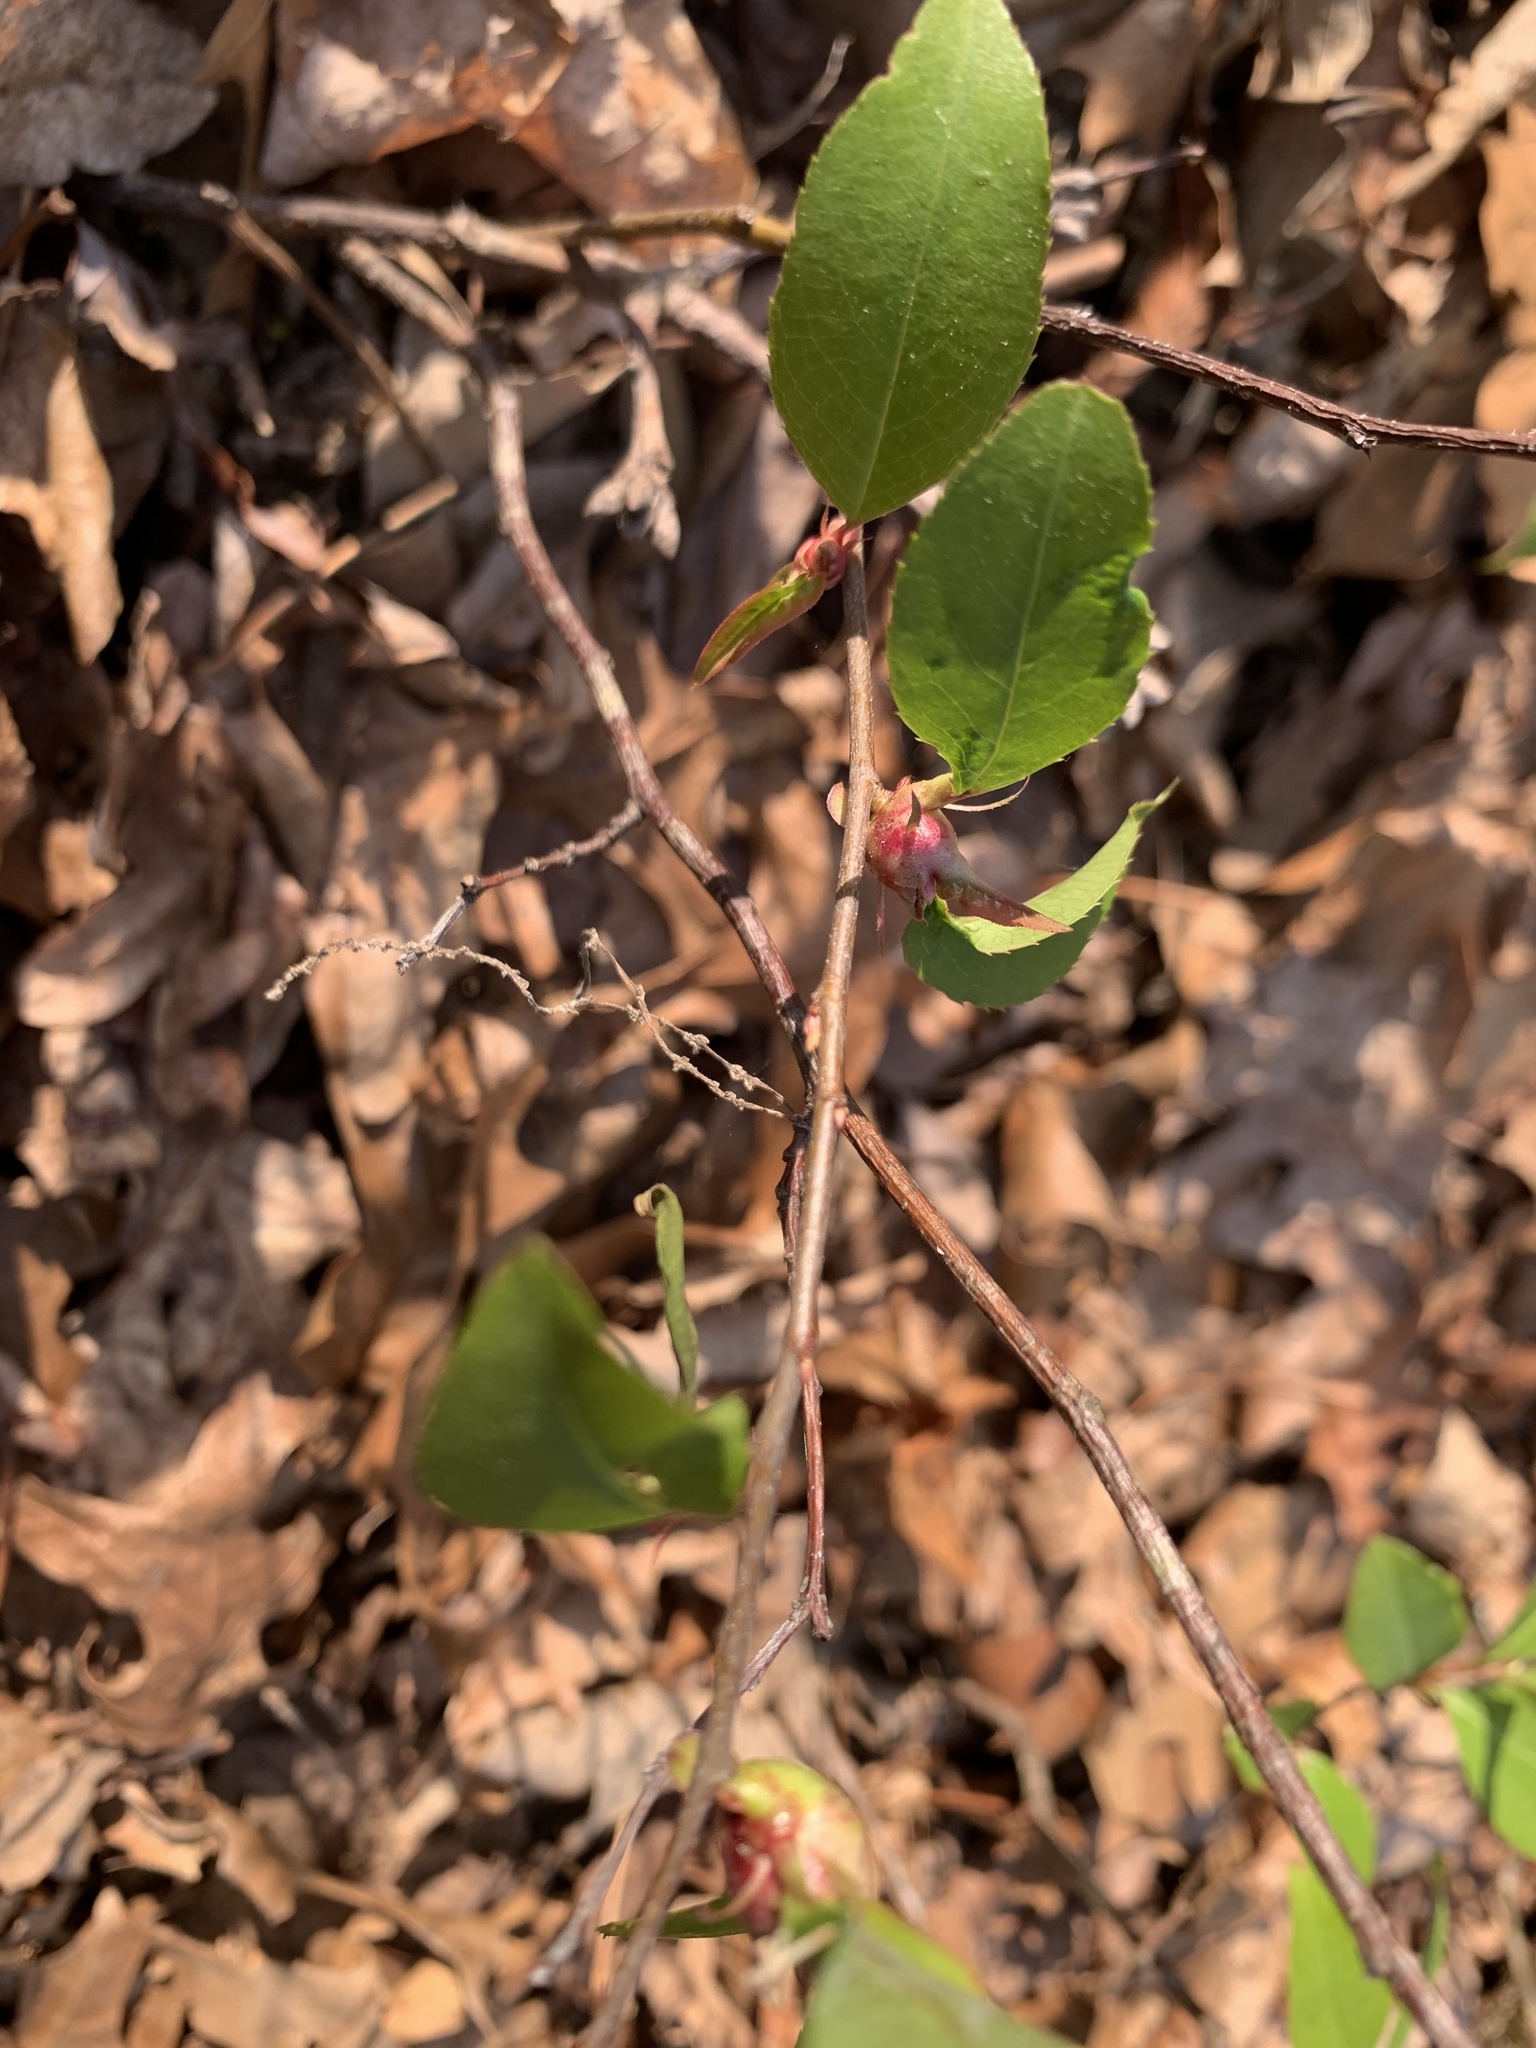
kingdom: Animalia
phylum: Arthropoda
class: Insecta
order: Diptera
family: Cecidomyiidae
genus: Contarinia
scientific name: Contarinia cerasiserotinae
